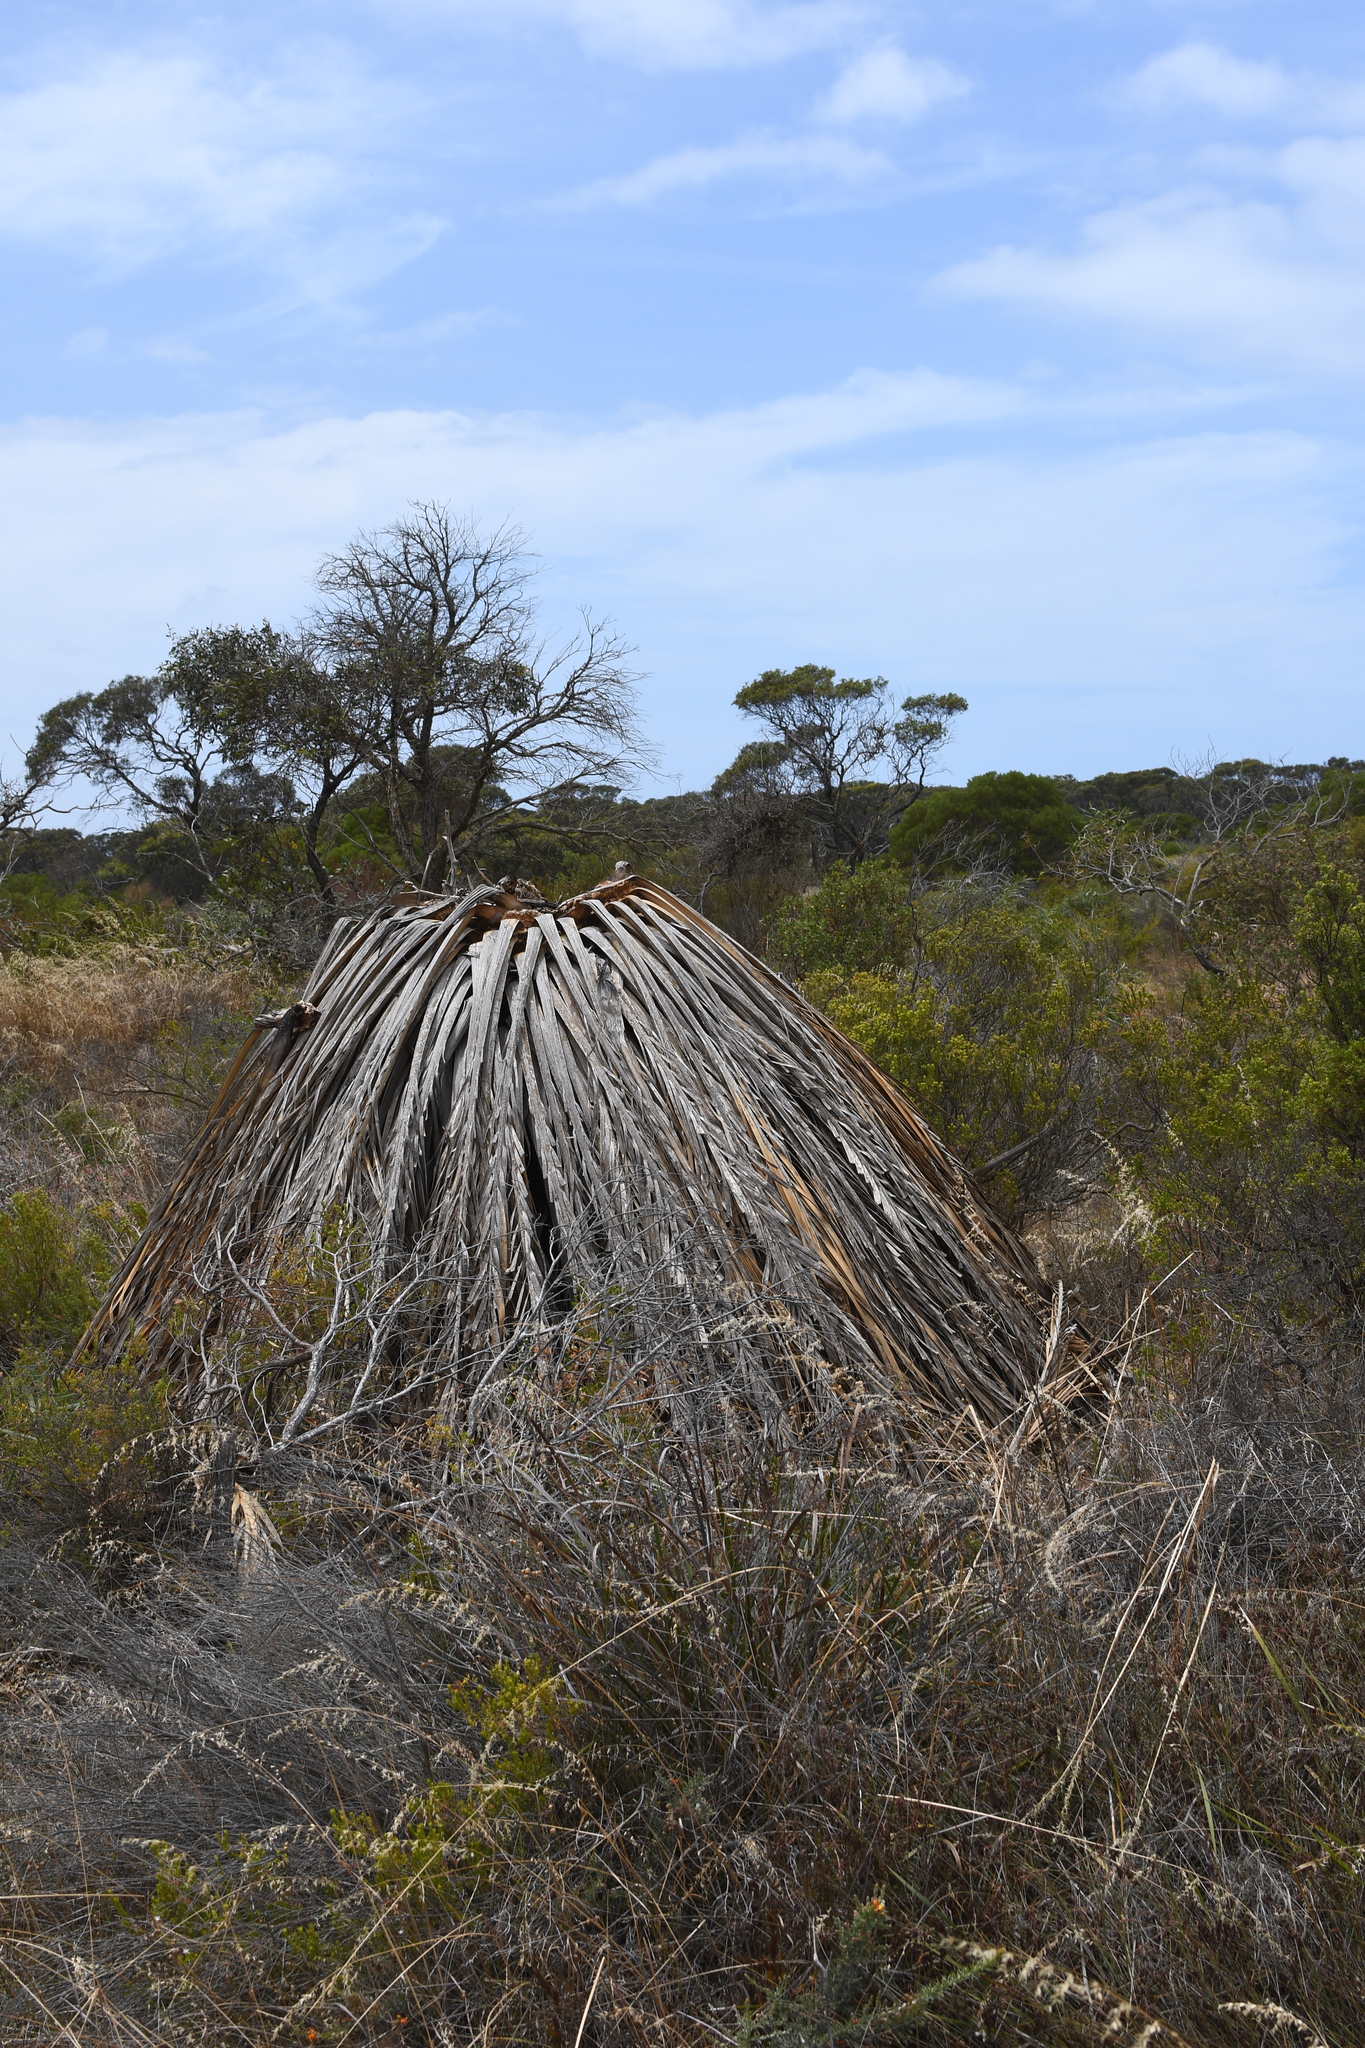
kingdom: Plantae
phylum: Tracheophyta
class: Cycadopsida
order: Cycadales
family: Zamiaceae
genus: Macrozamia
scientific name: Macrozamia dyeri
